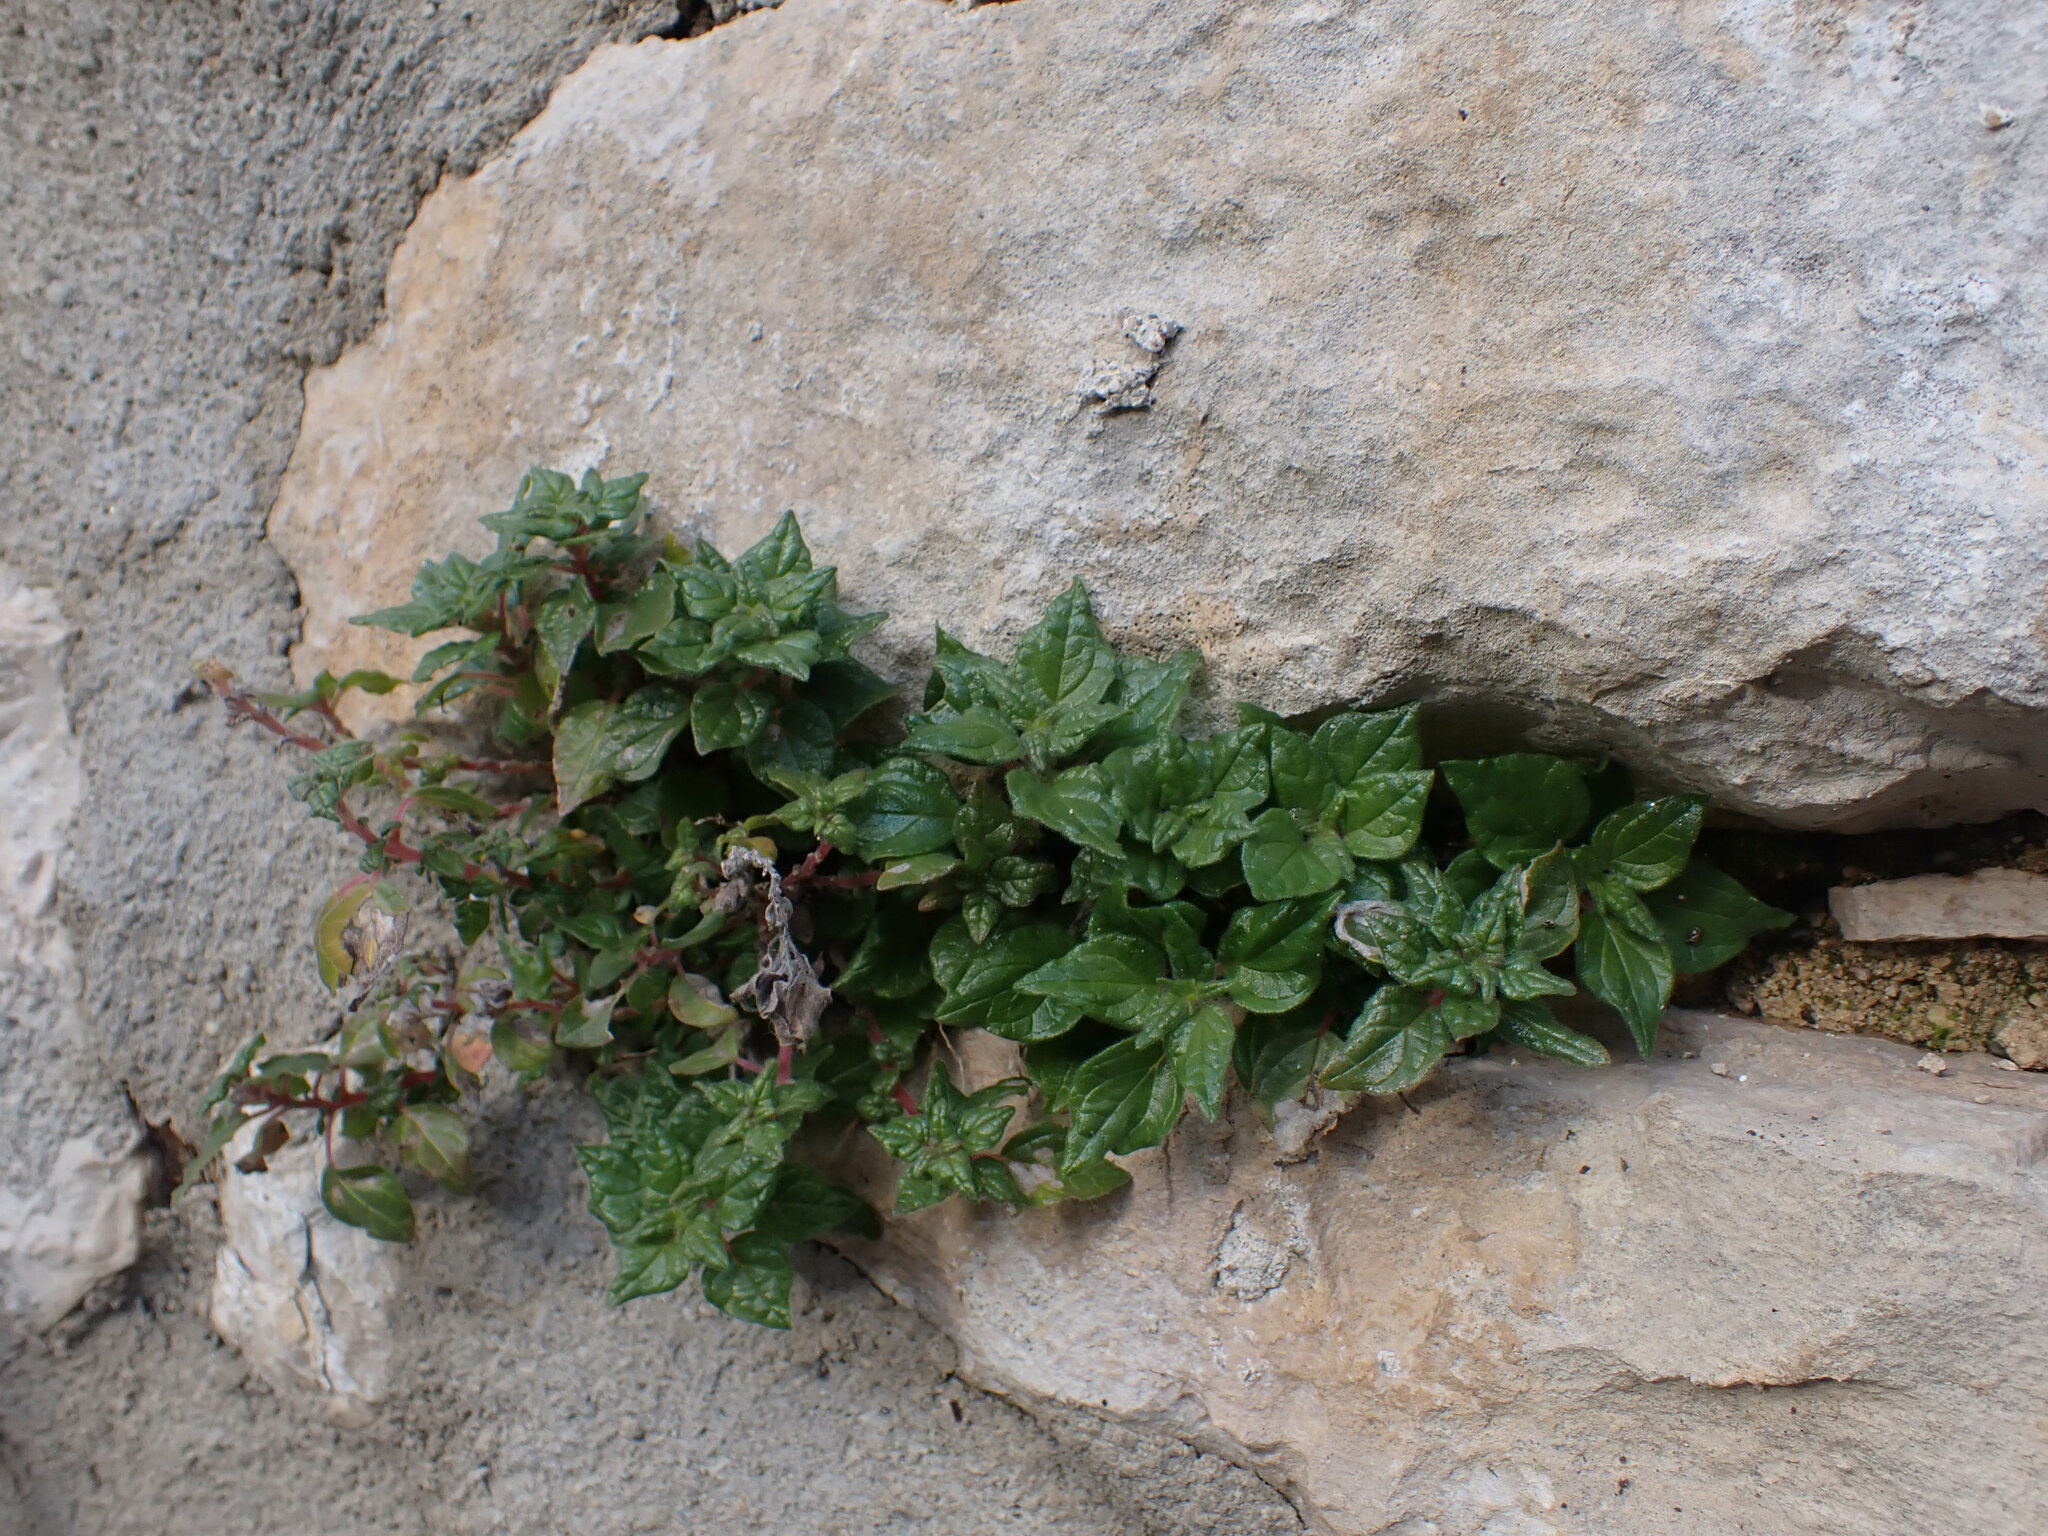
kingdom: Plantae
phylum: Tracheophyta
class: Magnoliopsida
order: Rosales
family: Urticaceae
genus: Parietaria
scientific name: Parietaria judaica
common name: Pellitory-of-the-wall
